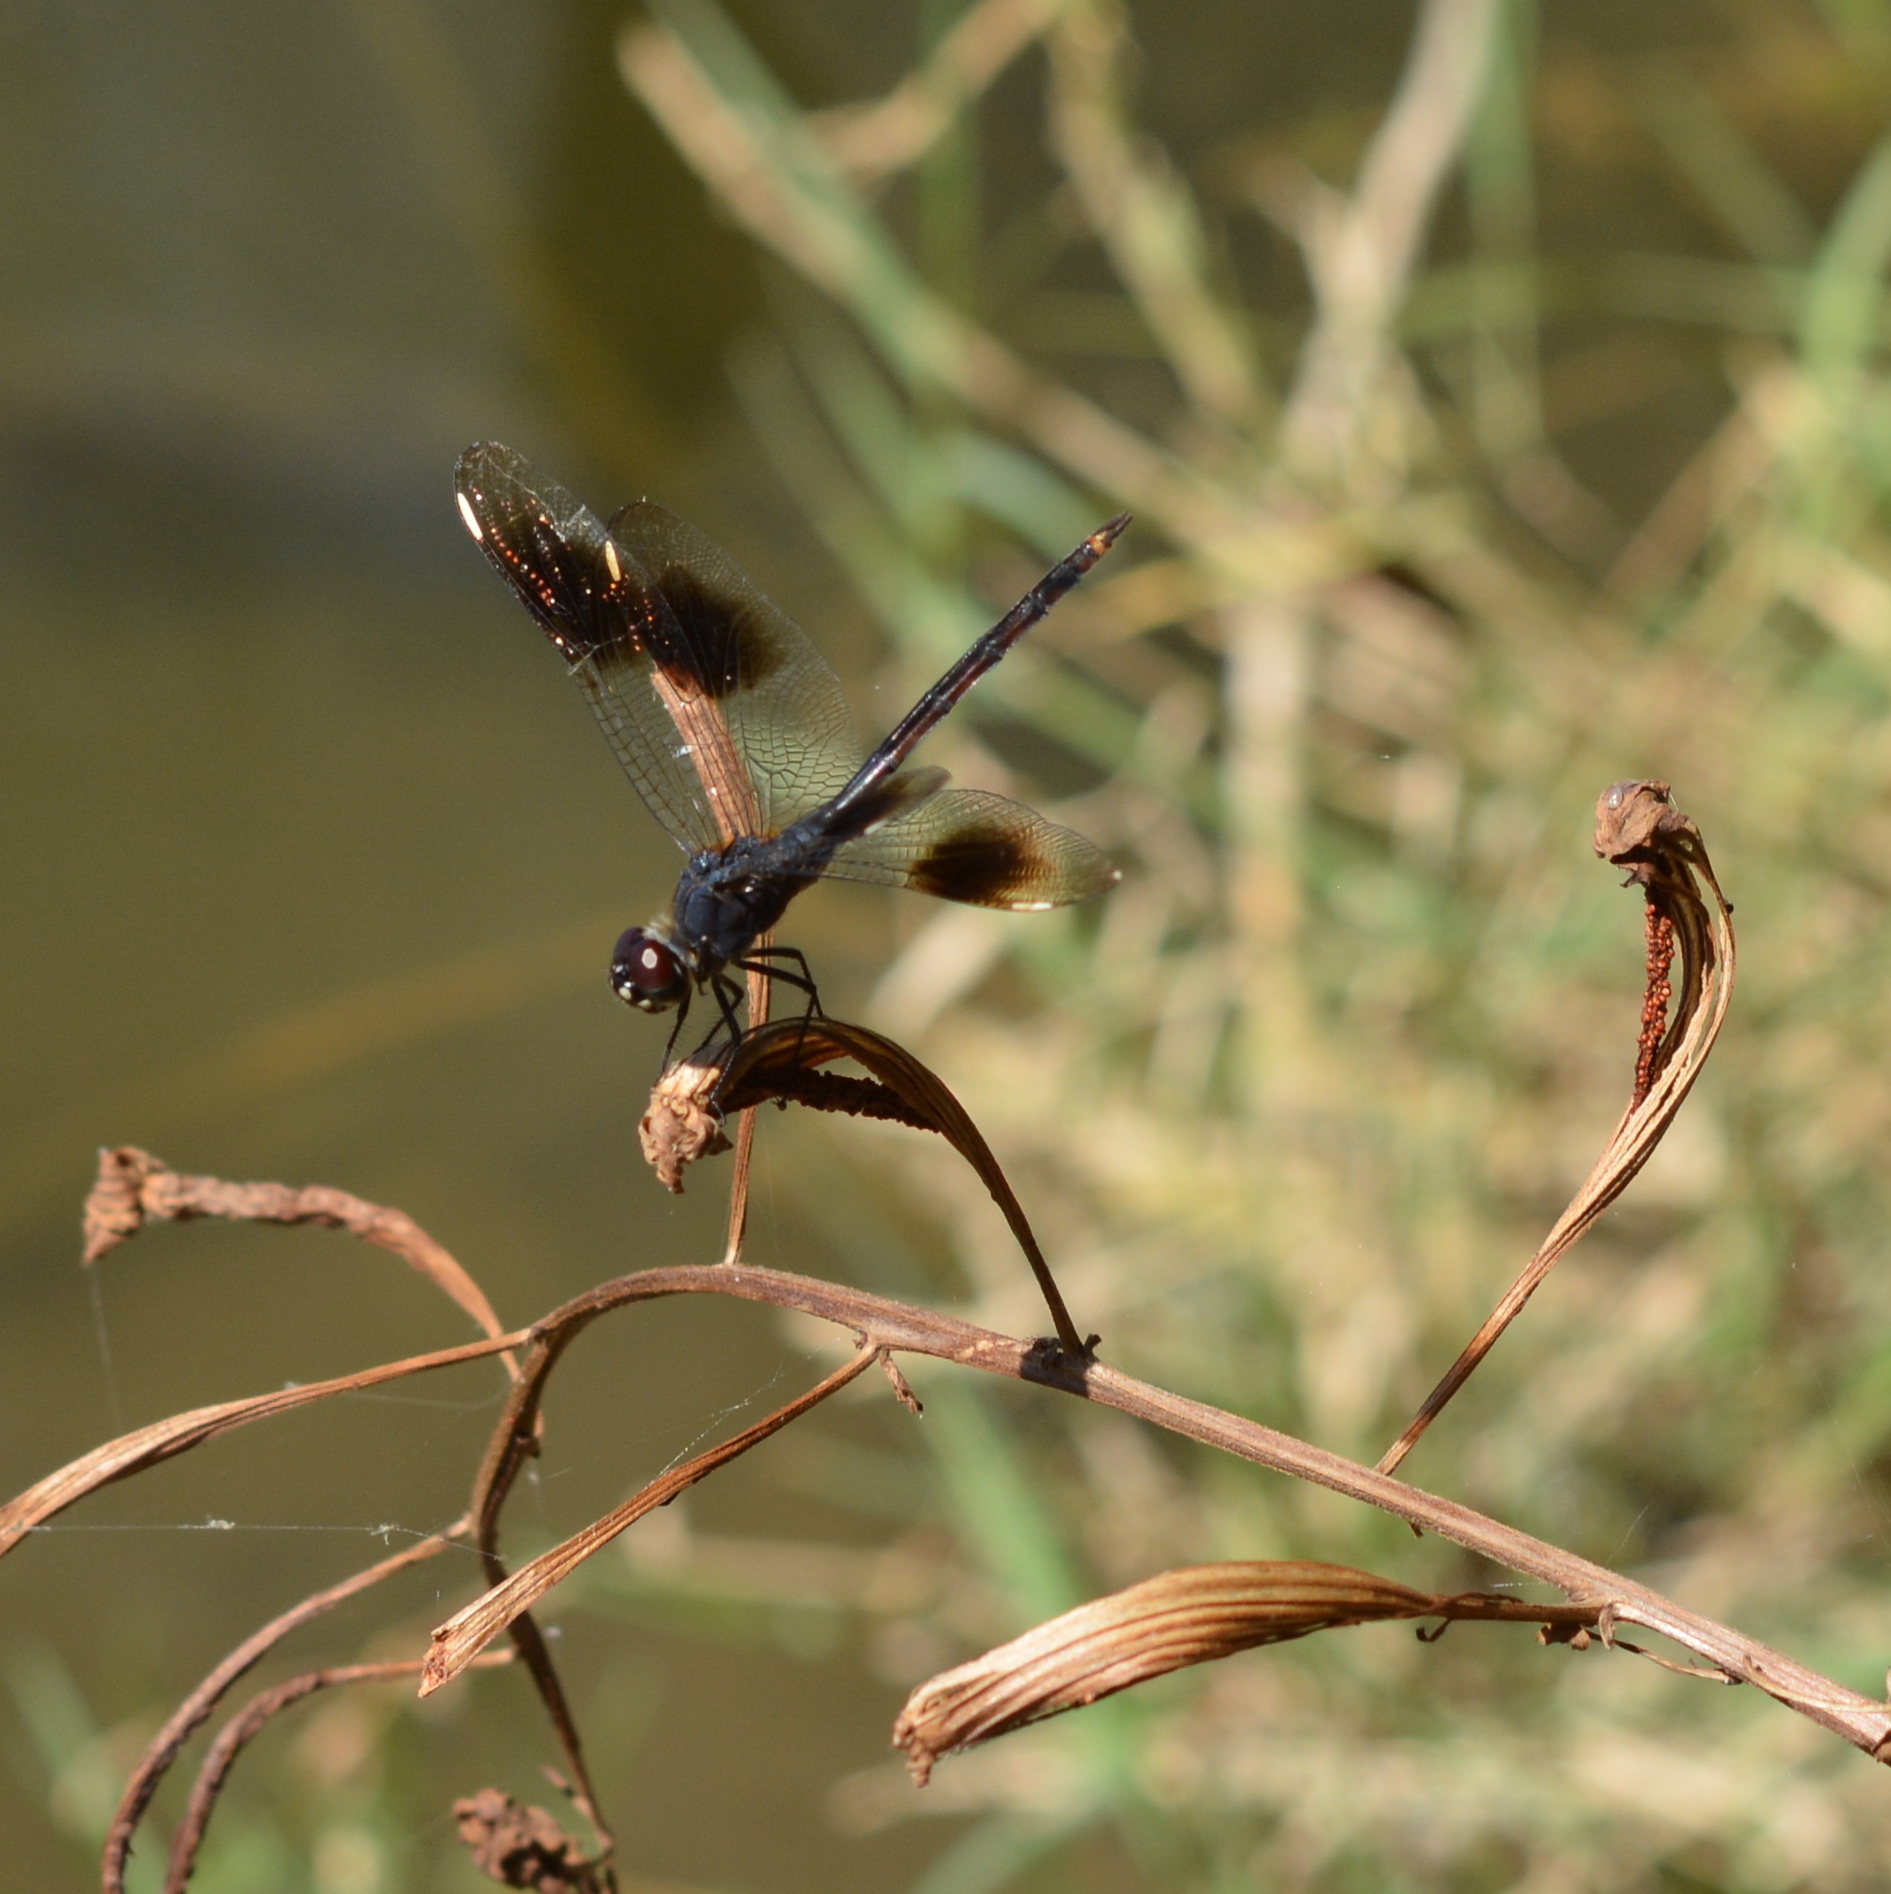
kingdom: Animalia
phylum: Arthropoda
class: Insecta
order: Odonata
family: Libellulidae
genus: Brachymesia
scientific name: Brachymesia gravida
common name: Four-spotted pennant
